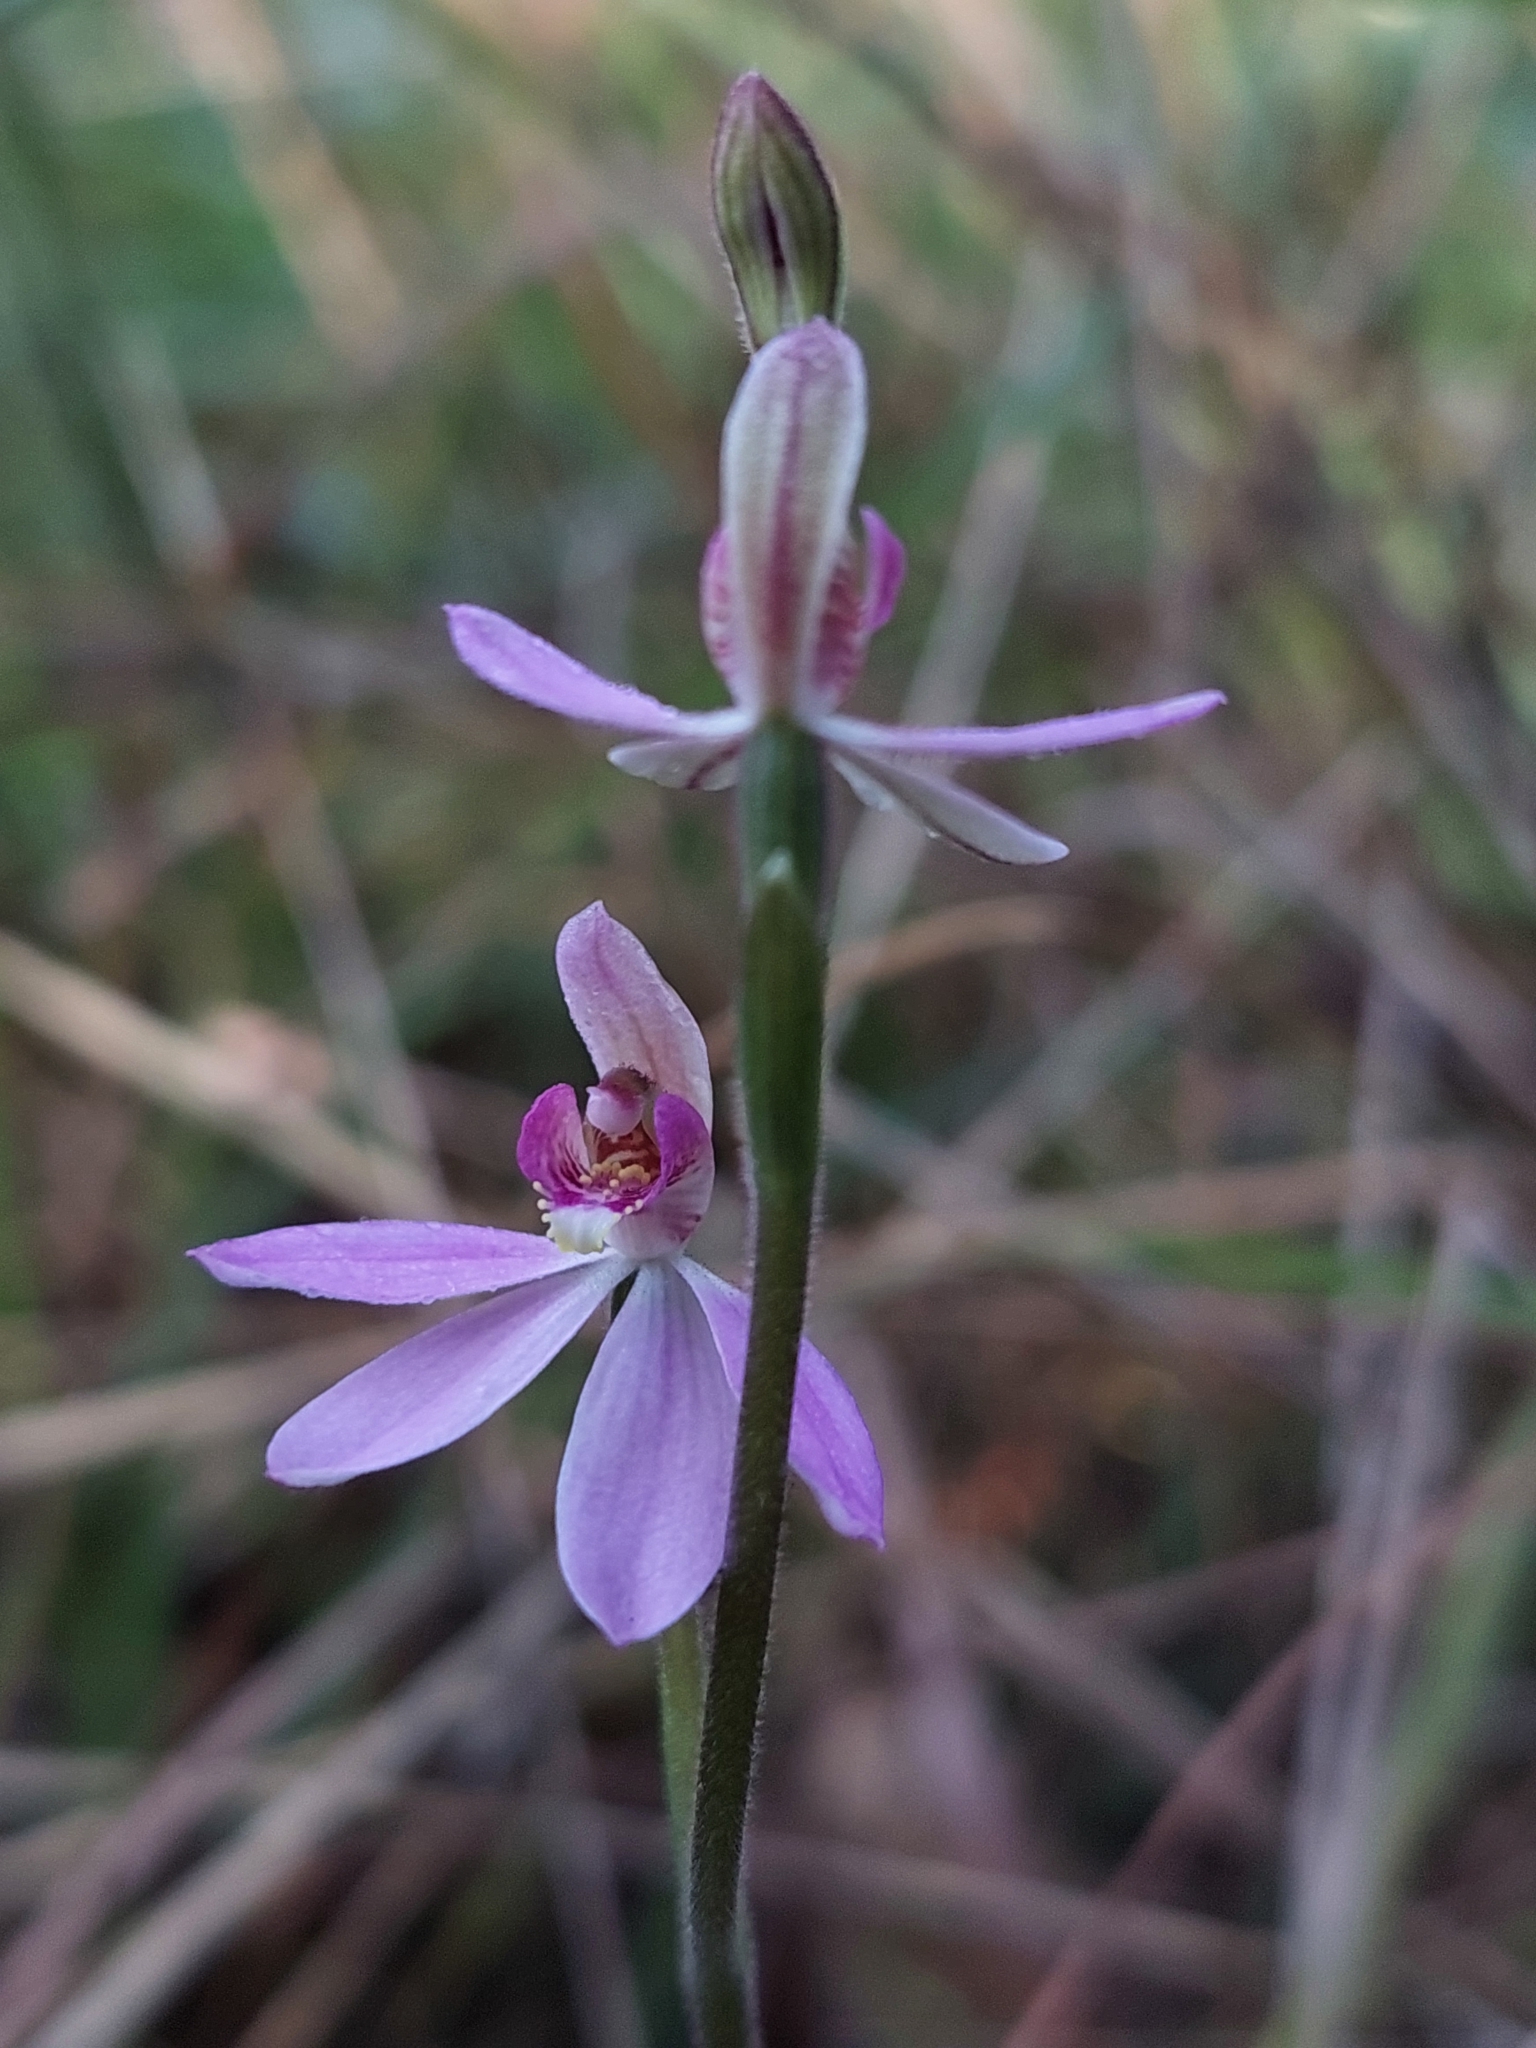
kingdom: Plantae
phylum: Tracheophyta
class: Liliopsida
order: Asparagales
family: Orchidaceae
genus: Caladenia
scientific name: Caladenia ornata
